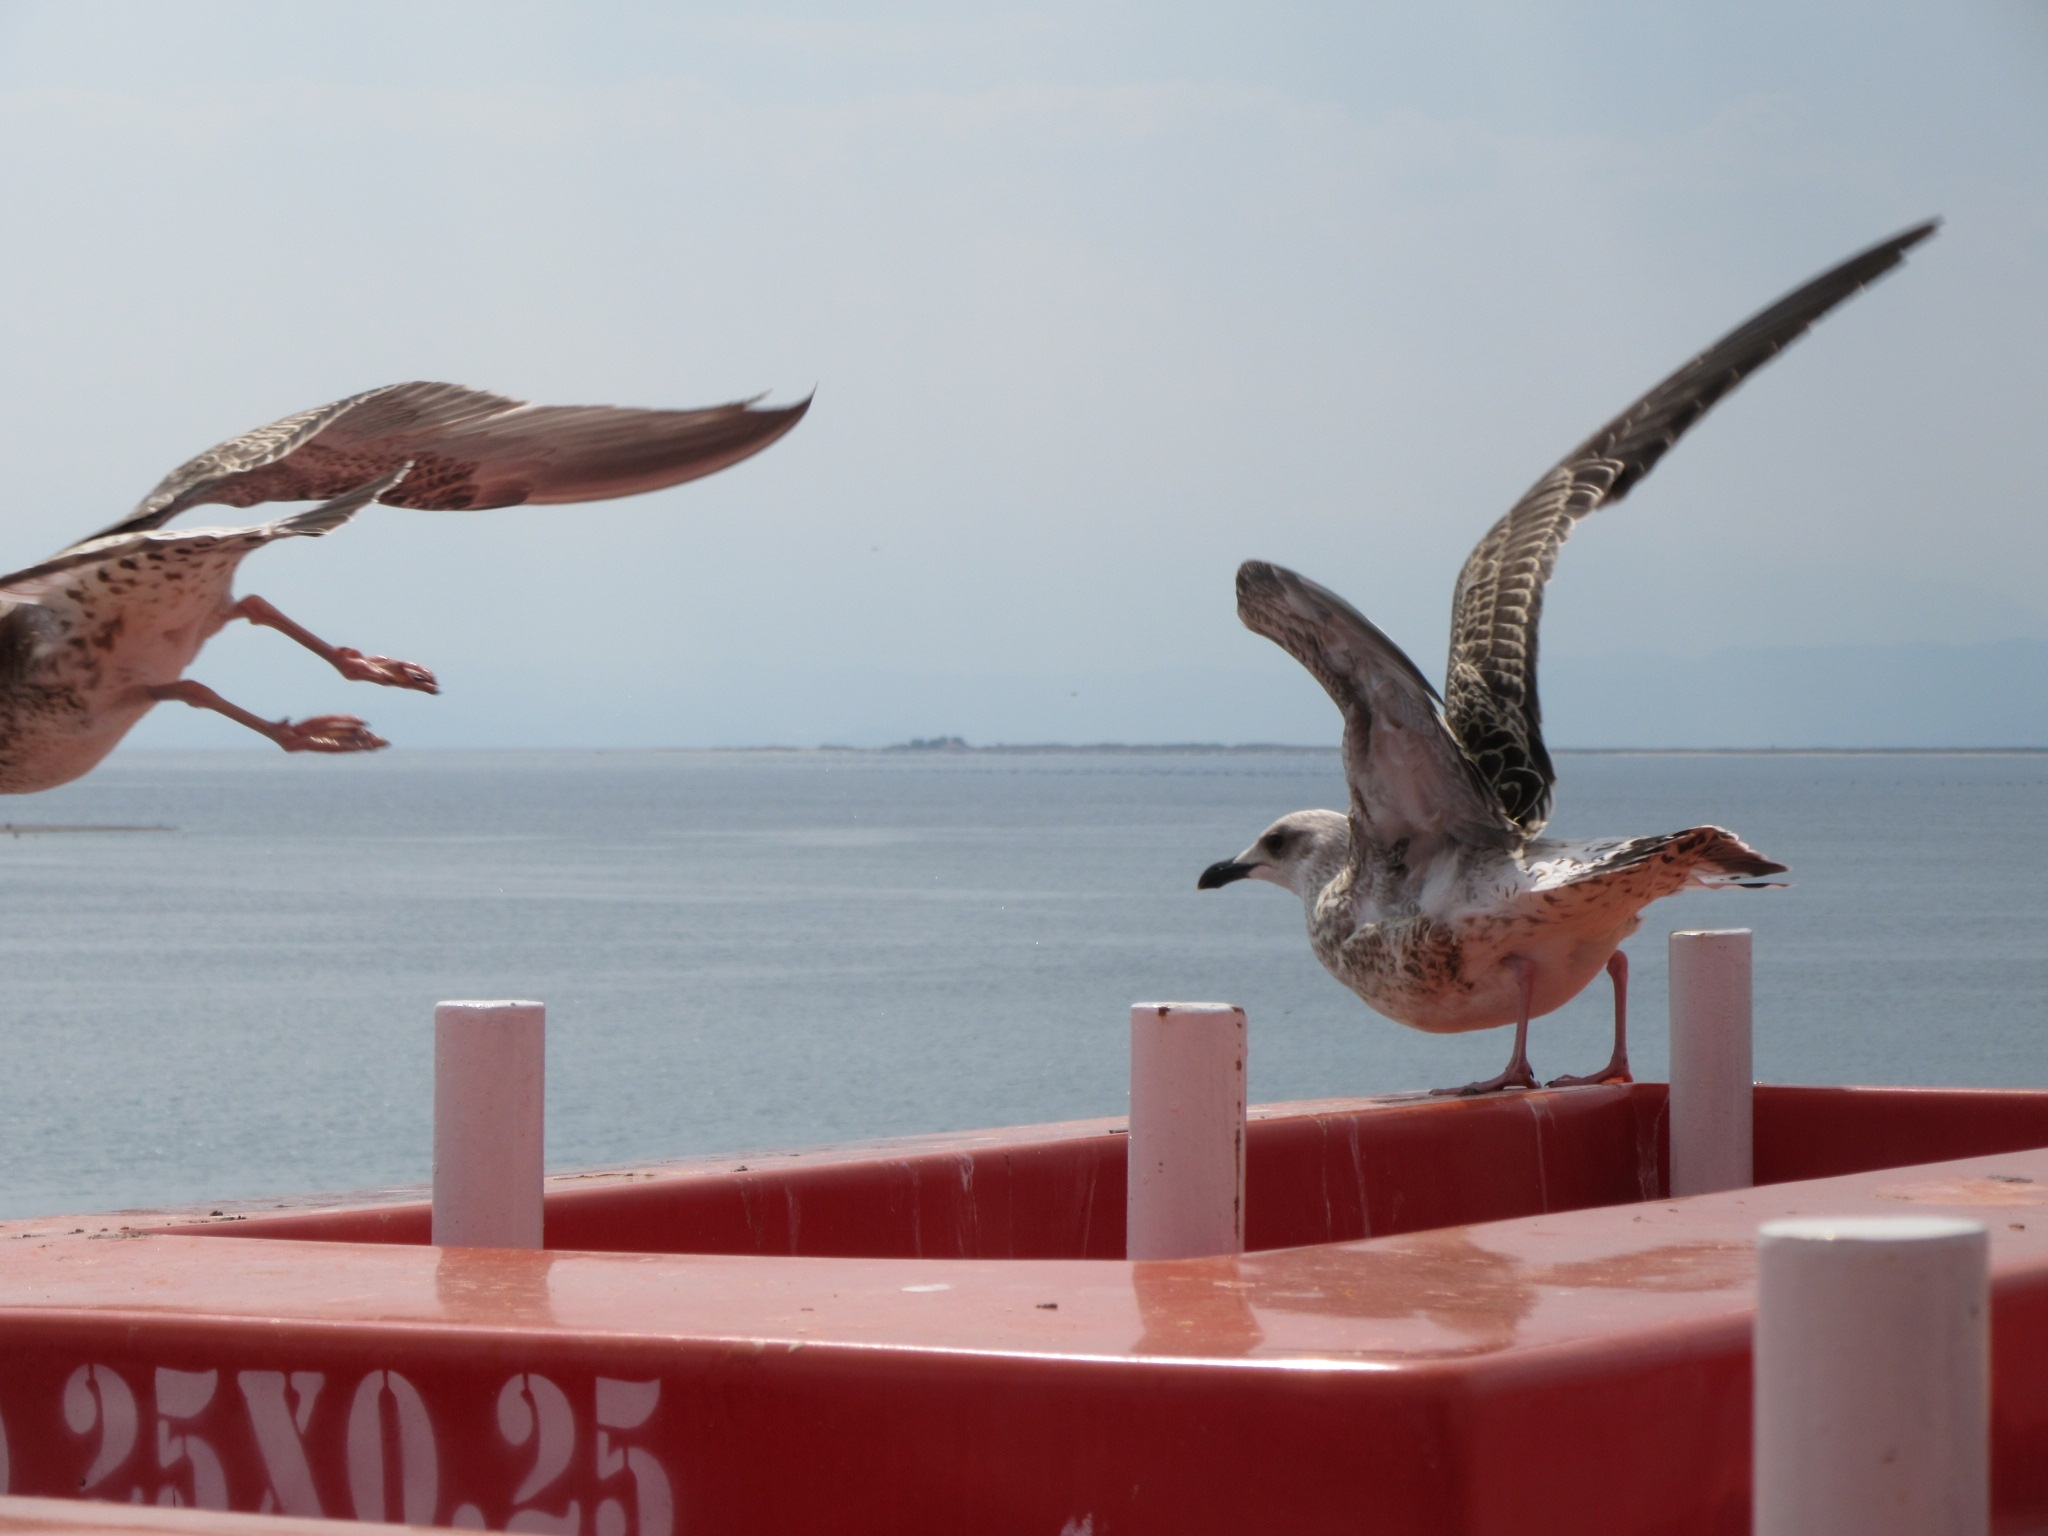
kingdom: Animalia
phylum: Chordata
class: Aves
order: Charadriiformes
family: Laridae
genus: Larus
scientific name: Larus michahellis
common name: Yellow-legged gull
